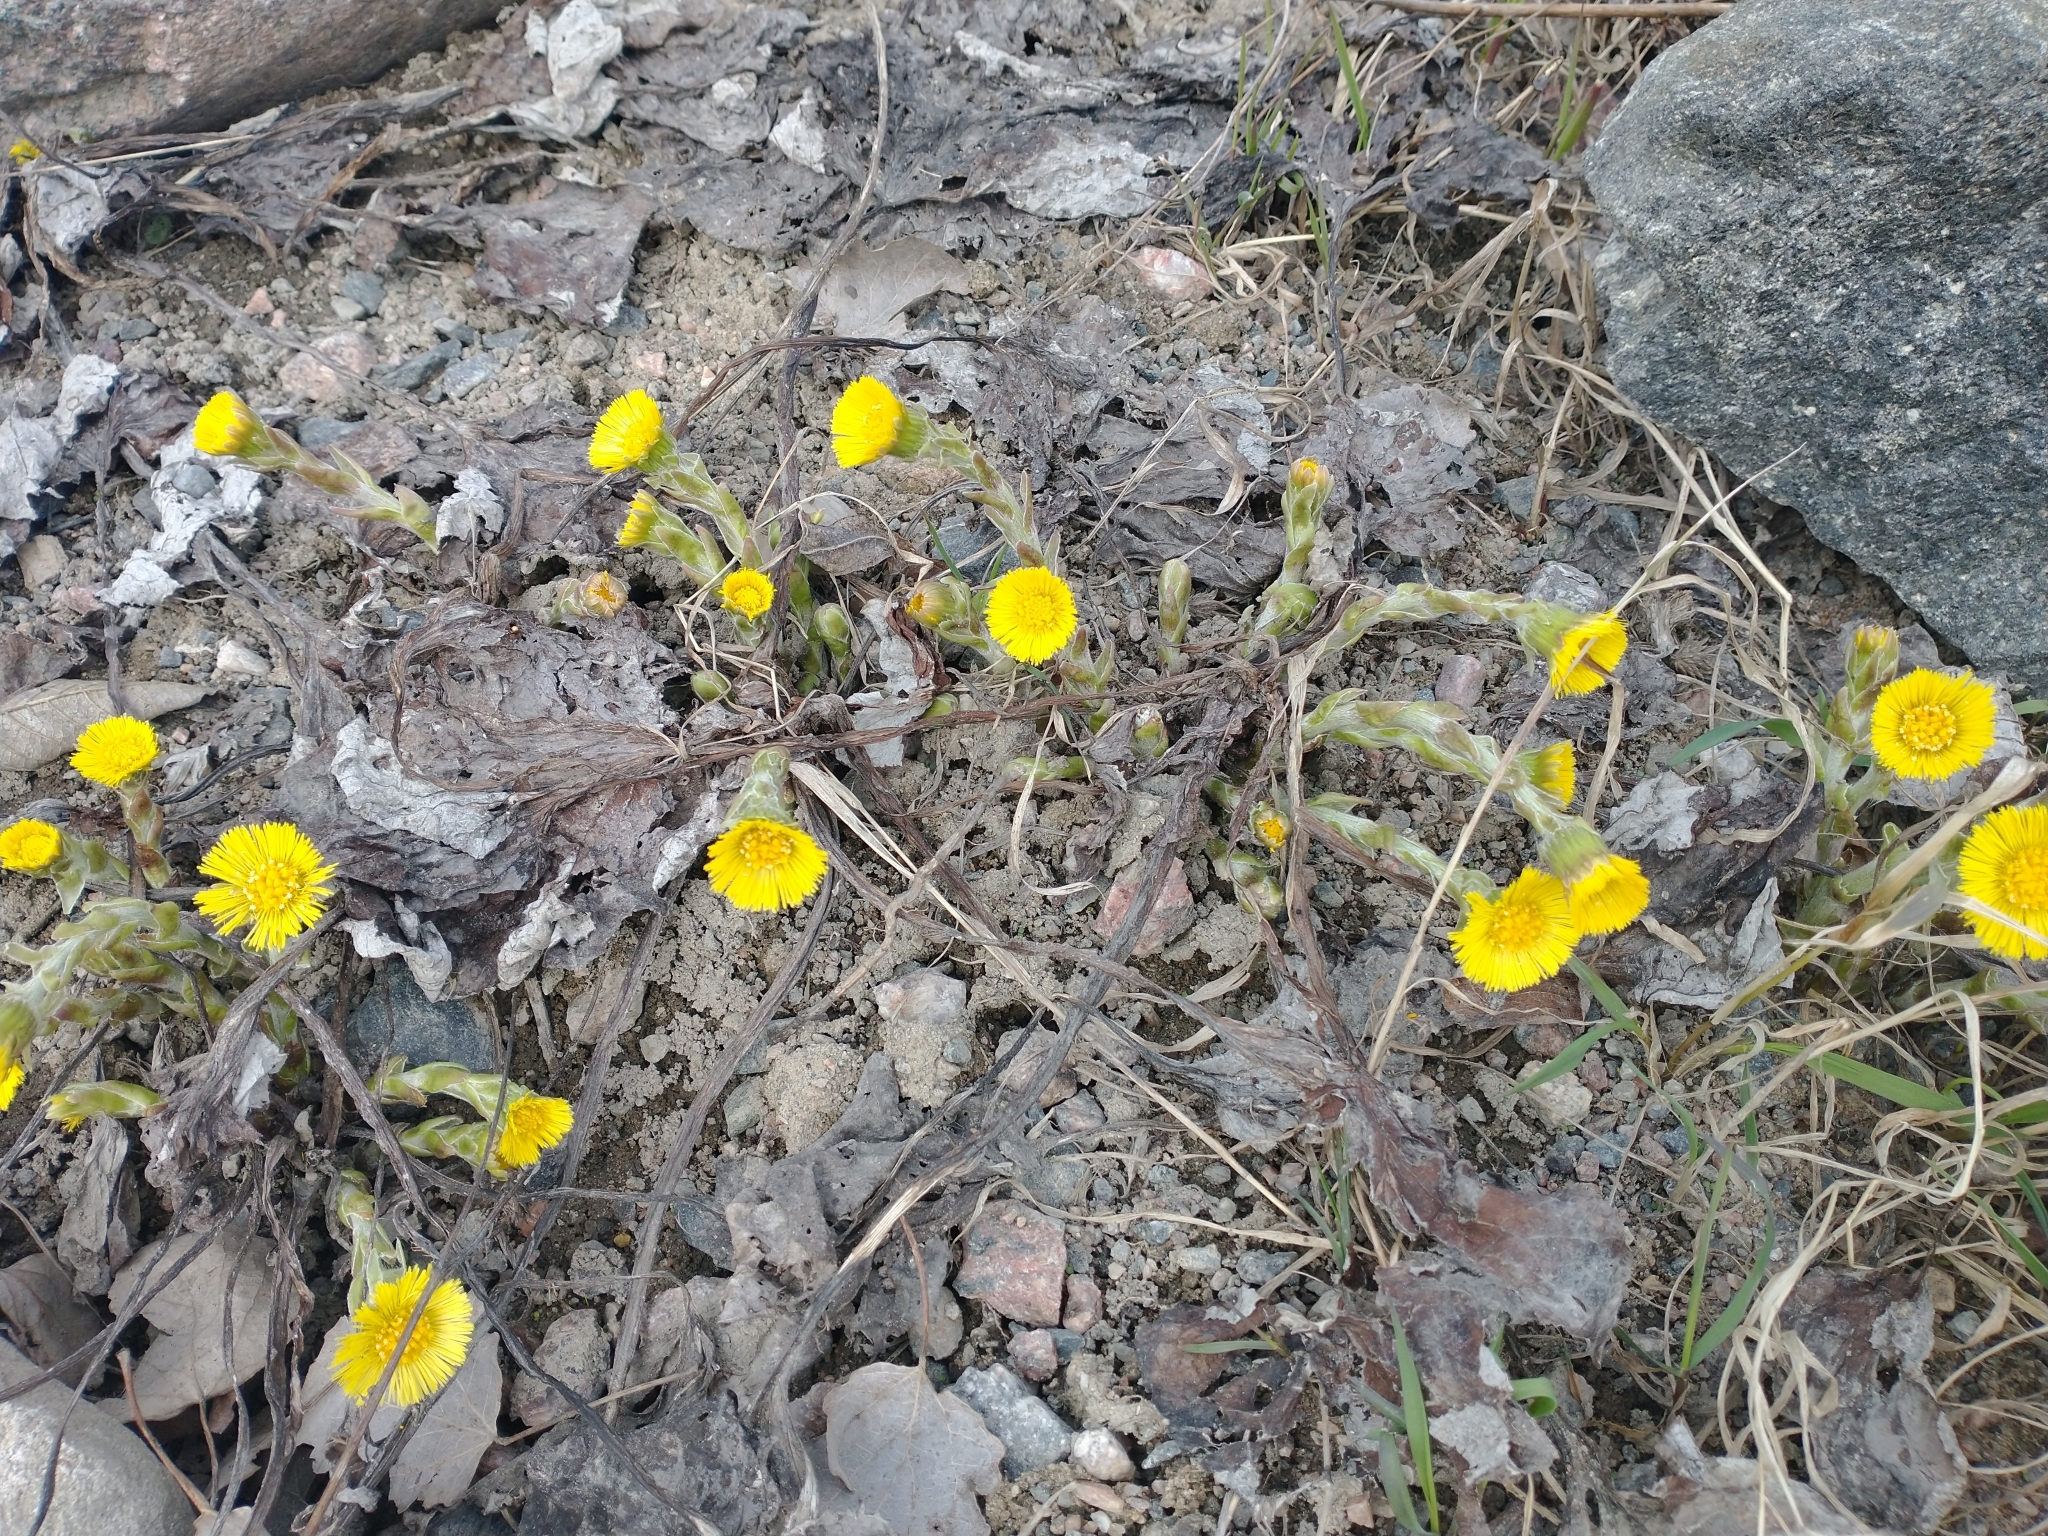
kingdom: Plantae
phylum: Tracheophyta
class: Magnoliopsida
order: Asterales
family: Asteraceae
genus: Tussilago
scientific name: Tussilago farfara
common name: Coltsfoot
